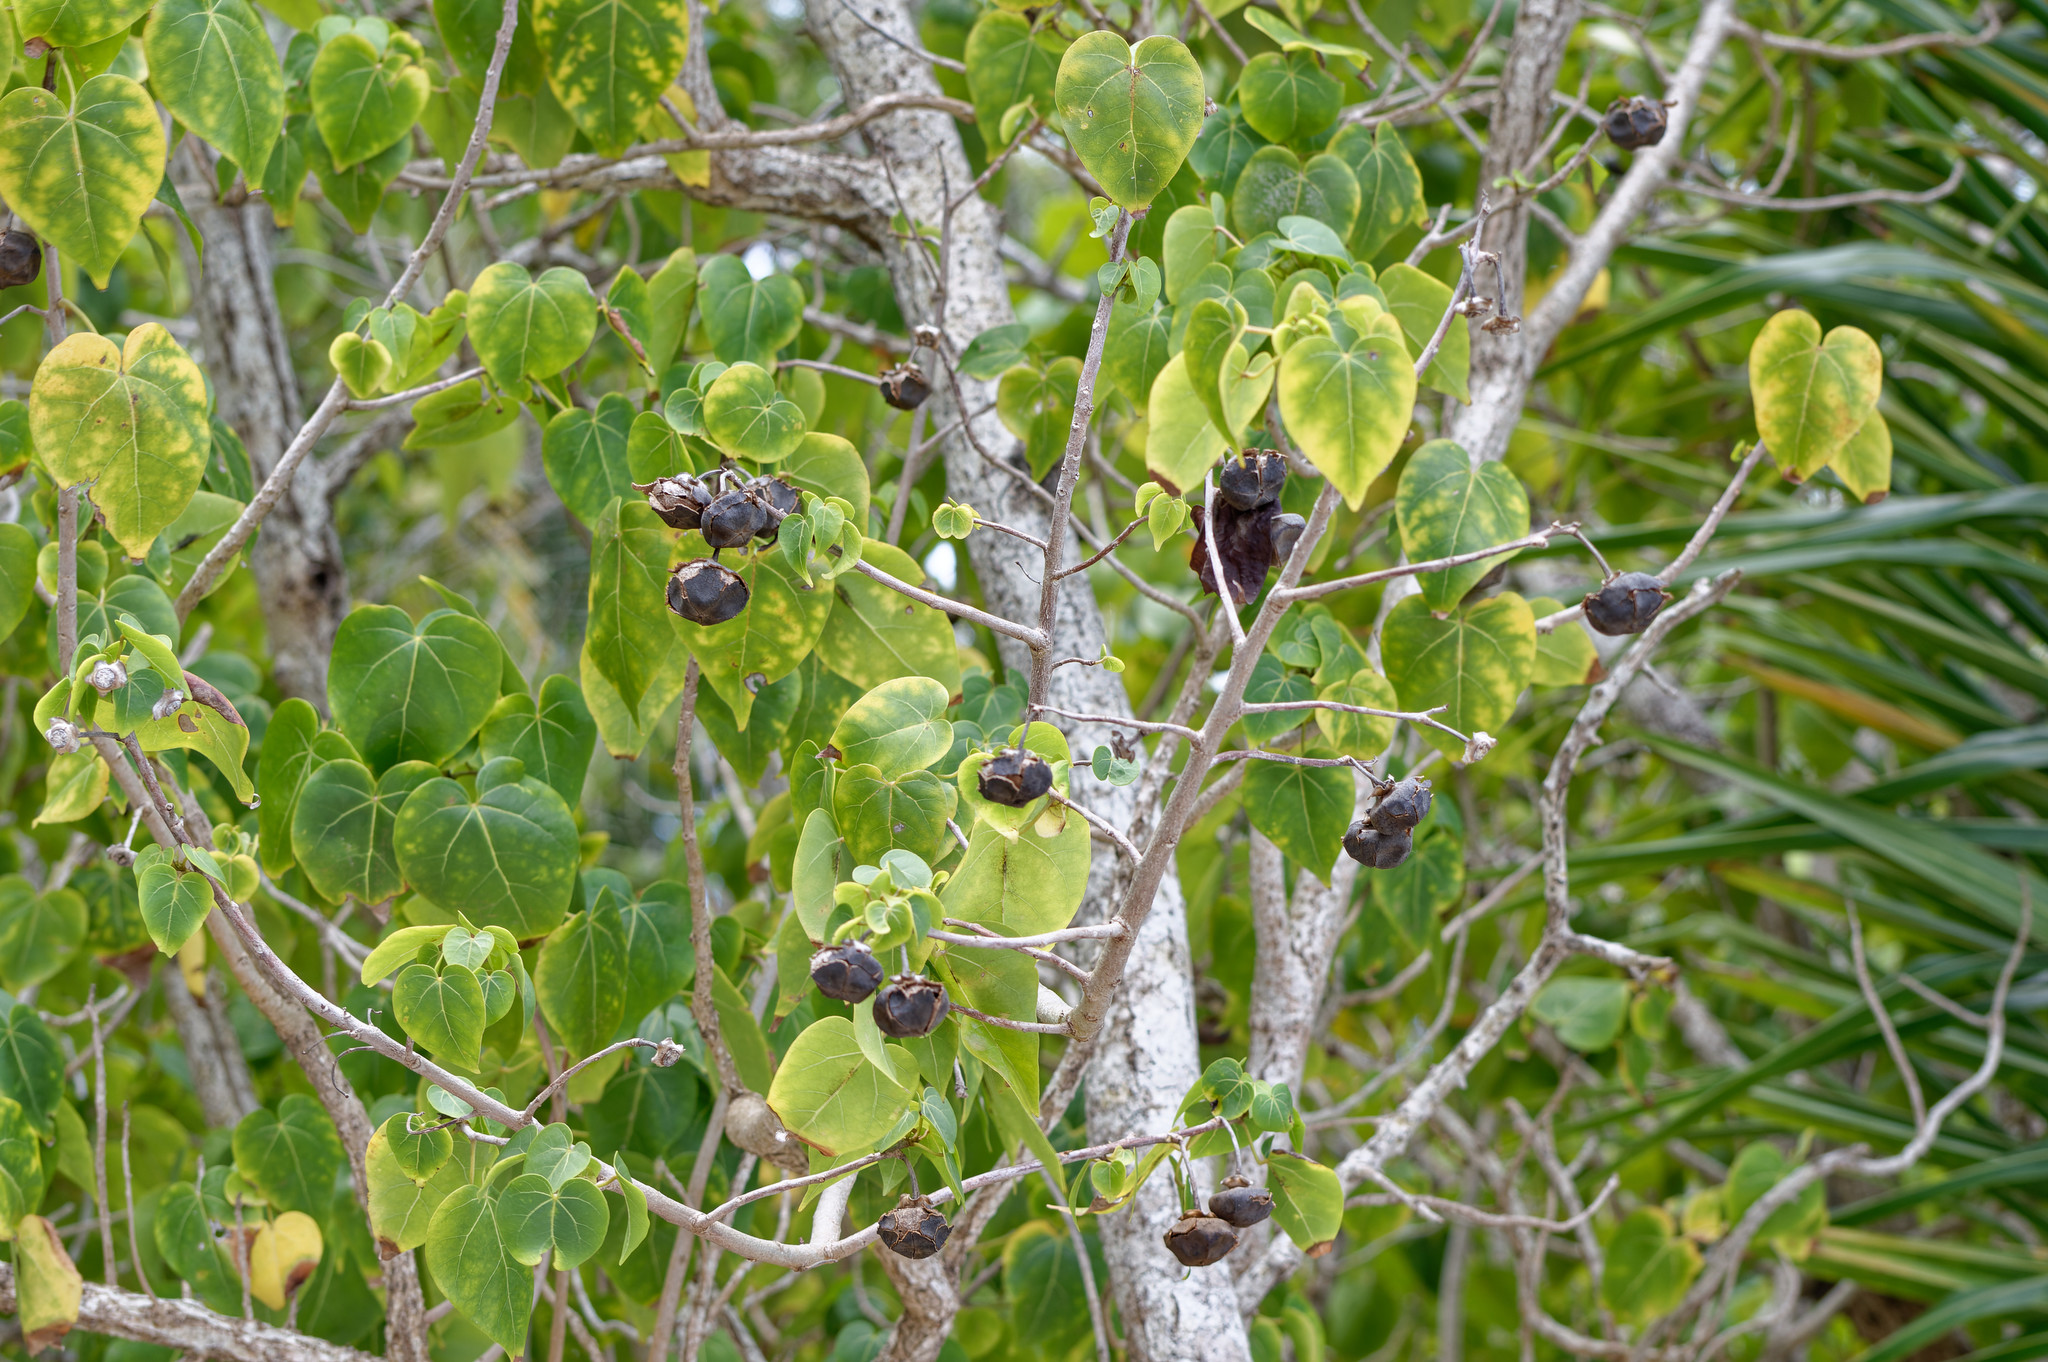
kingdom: Plantae
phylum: Tracheophyta
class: Magnoliopsida
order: Malvales
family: Malvaceae
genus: Thespesia
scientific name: Thespesia populnea
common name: Seaside mahoe
